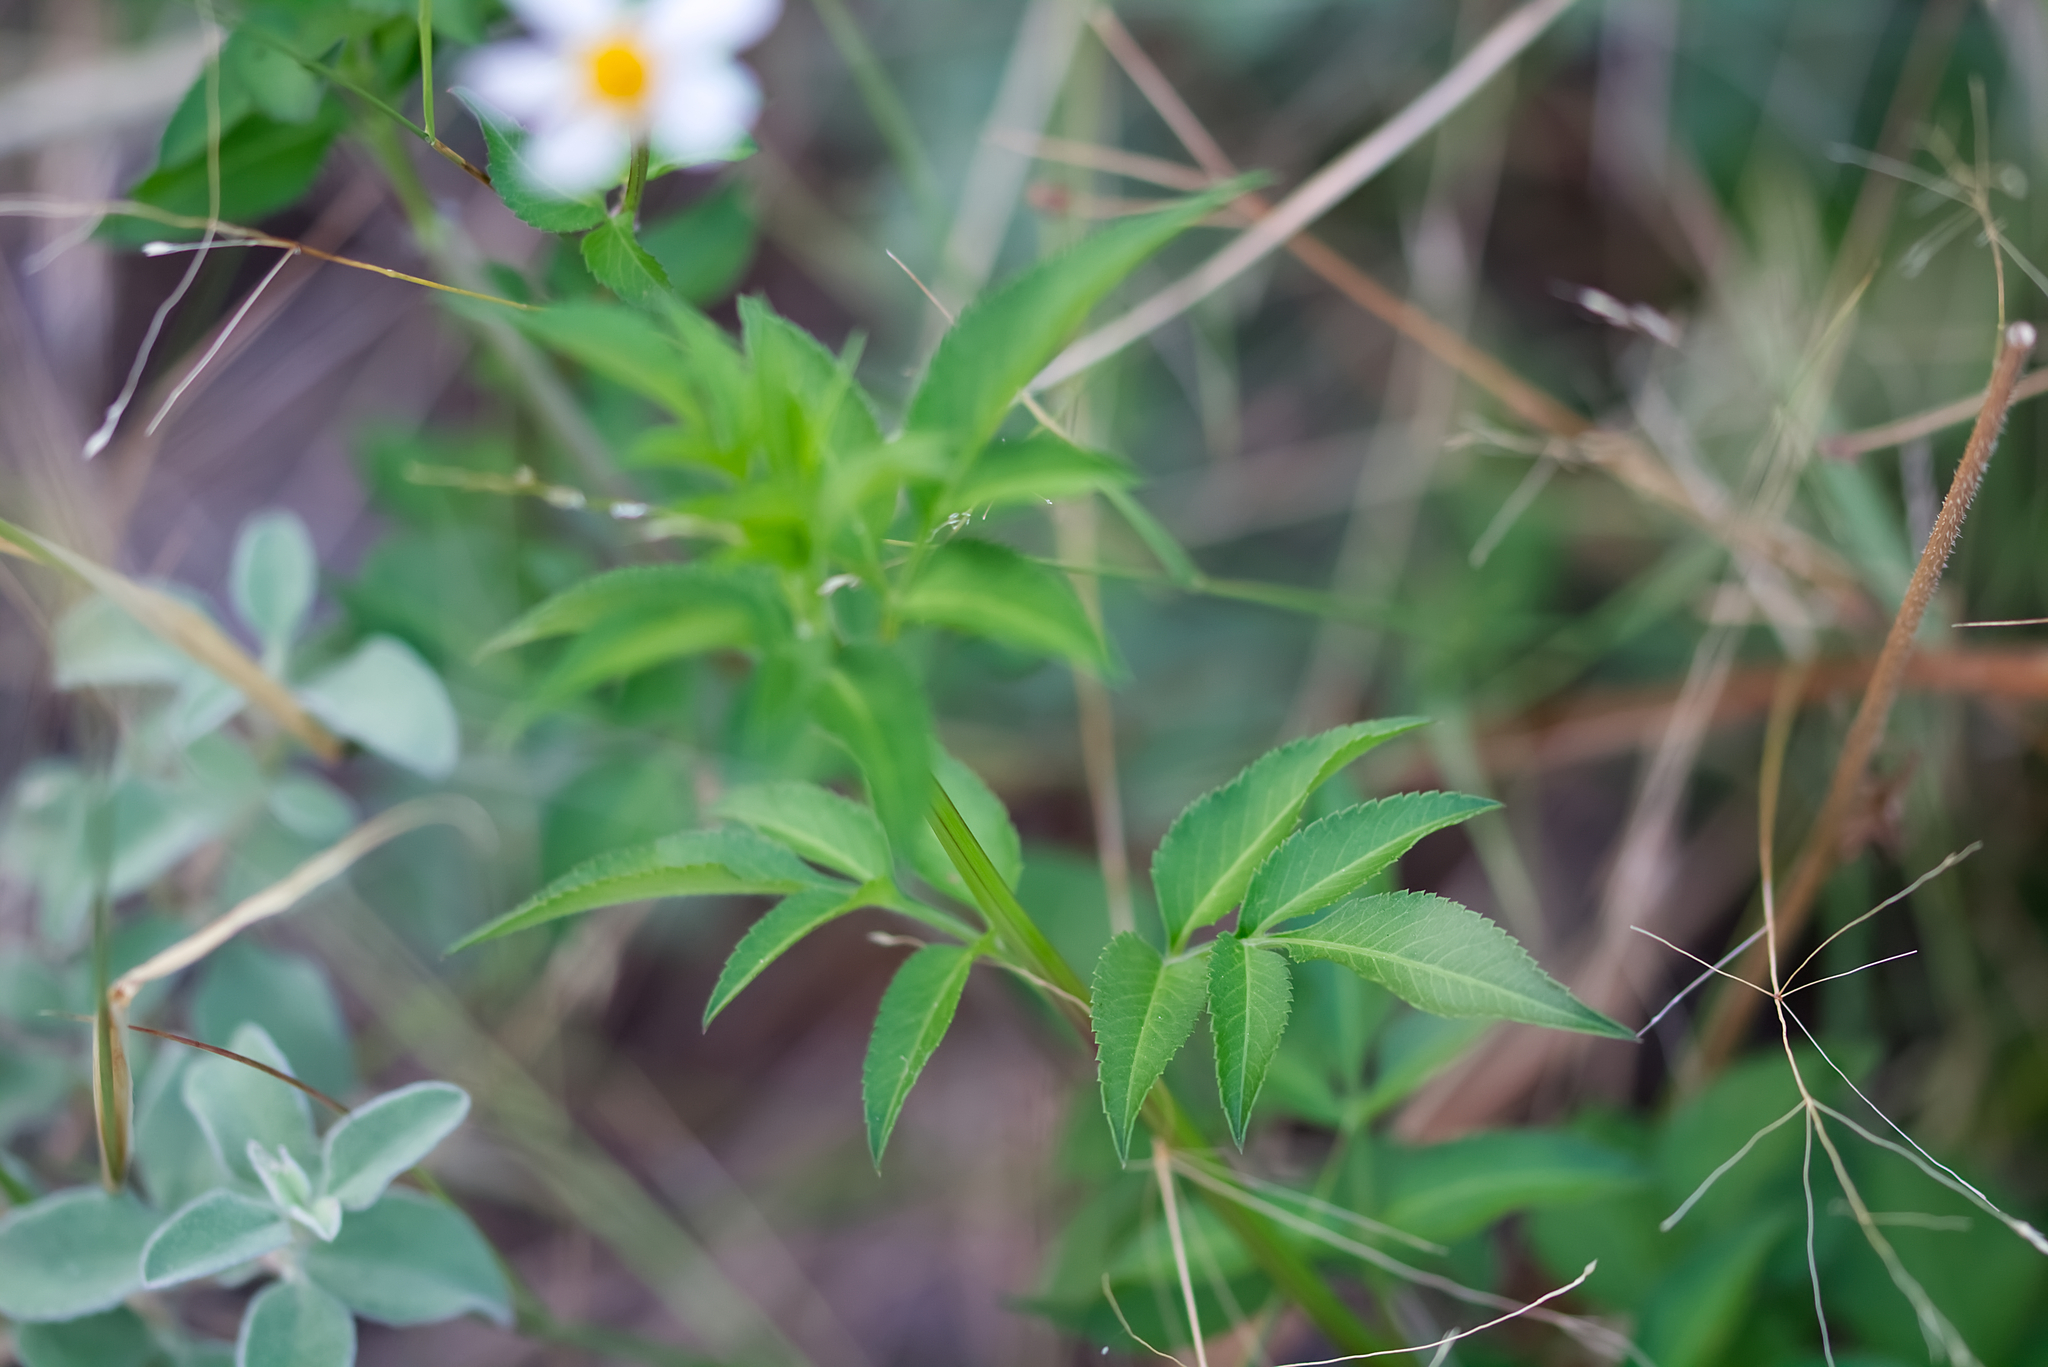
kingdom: Plantae
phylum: Tracheophyta
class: Magnoliopsida
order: Asterales
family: Asteraceae
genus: Bidens
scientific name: Bidens alba
